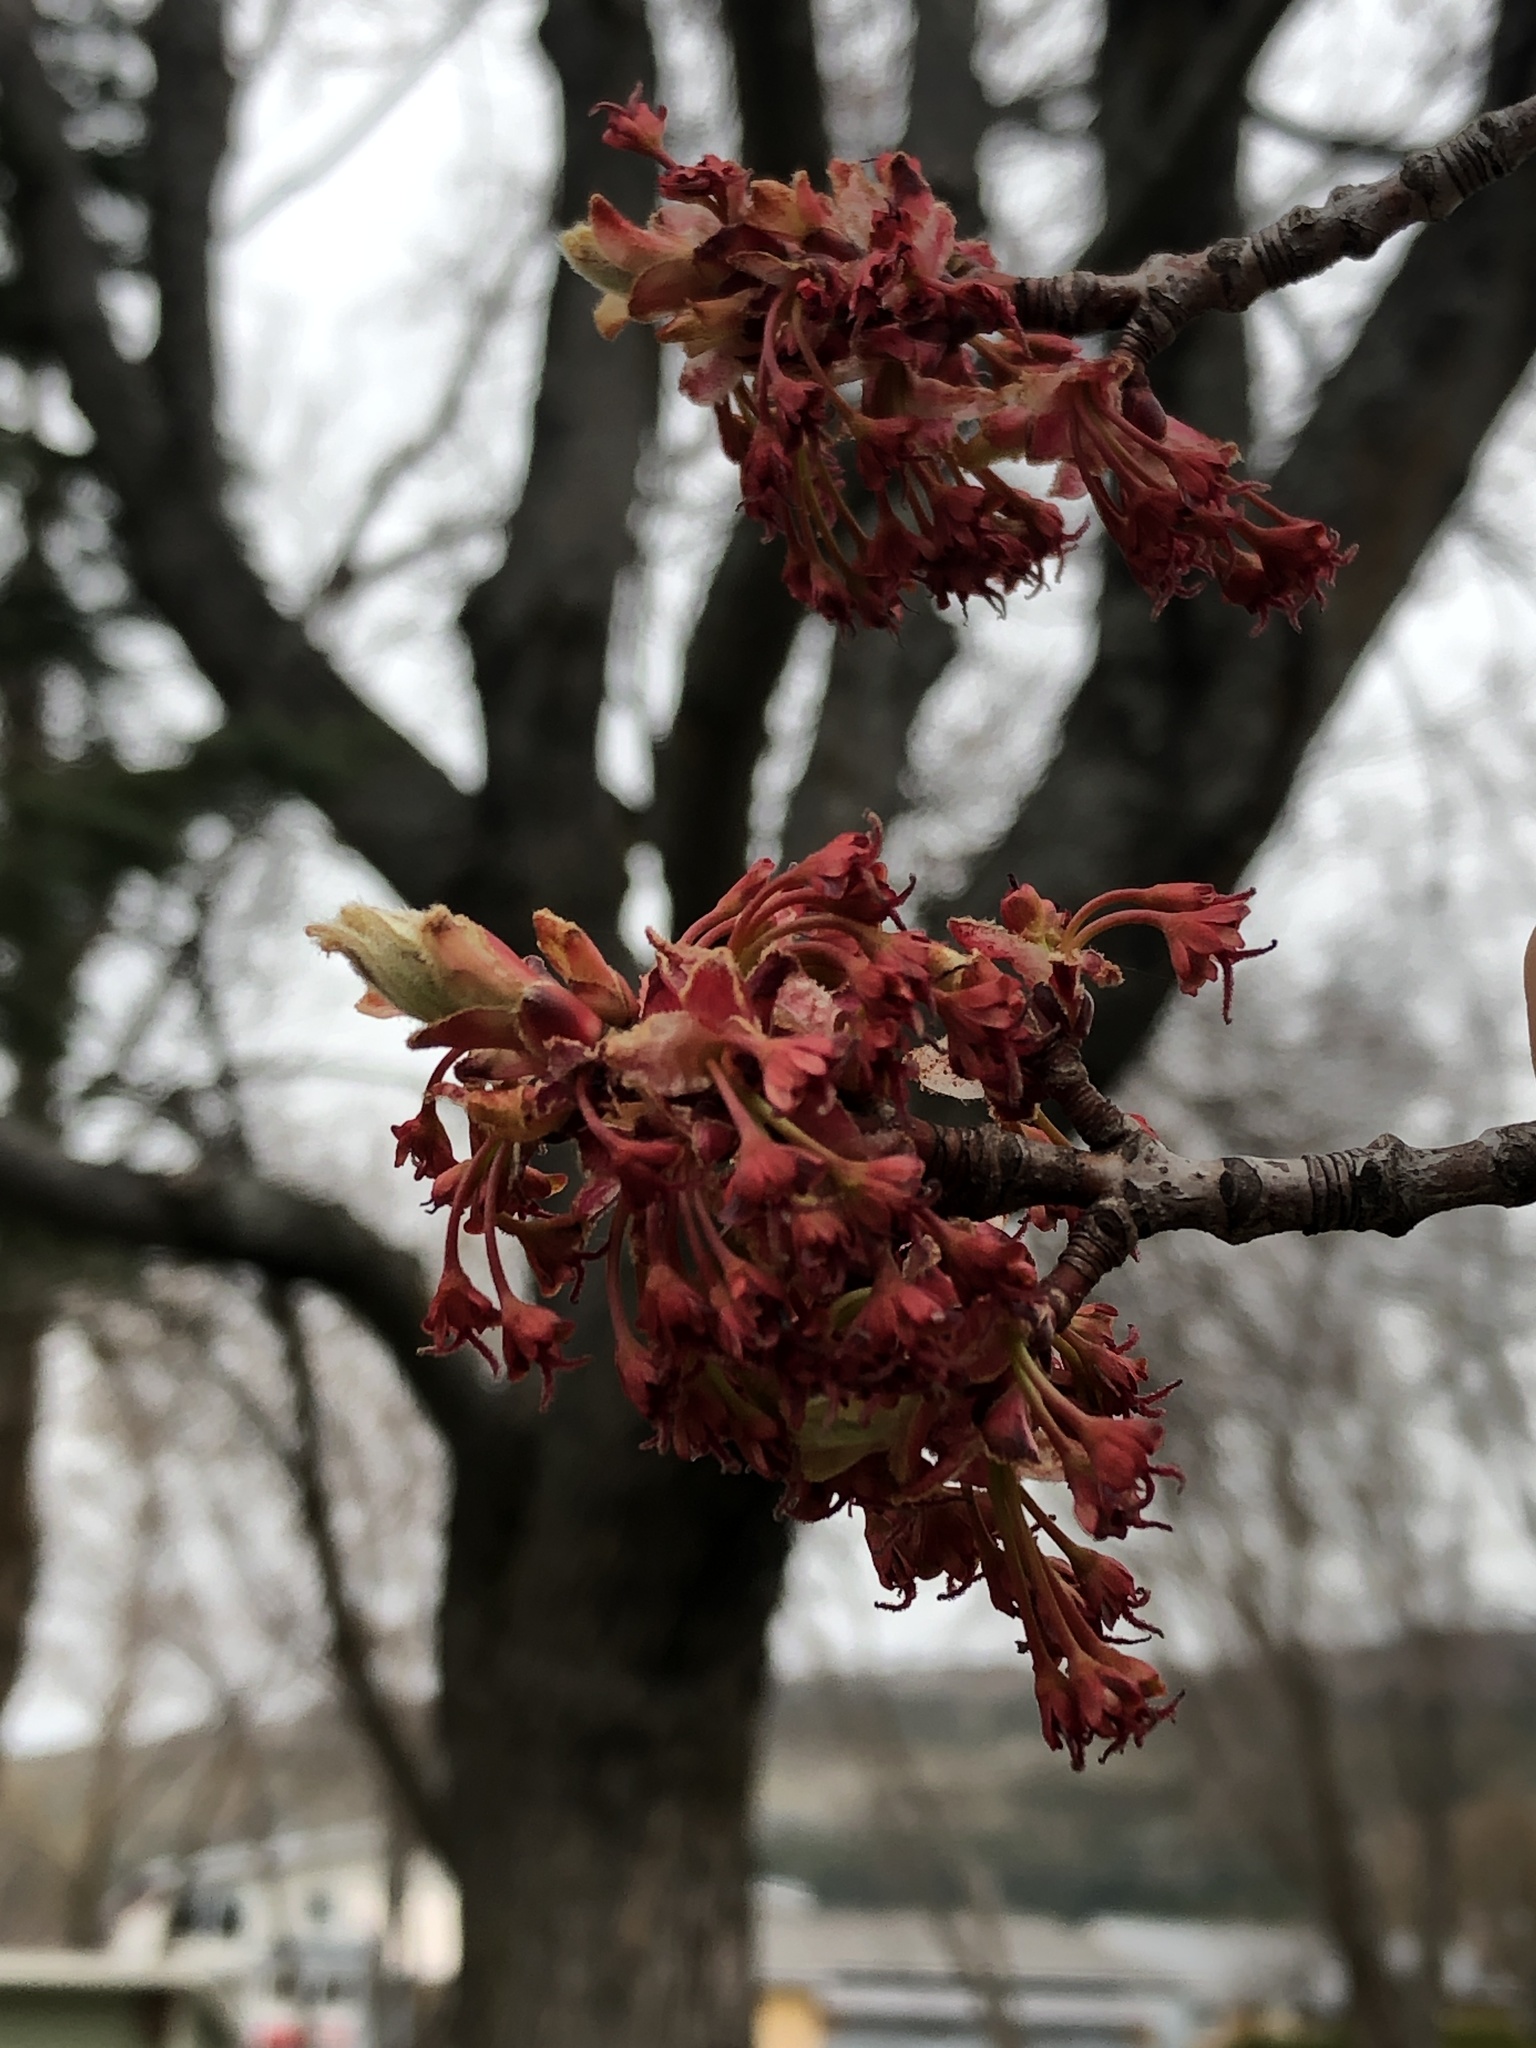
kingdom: Plantae
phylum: Tracheophyta
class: Magnoliopsida
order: Sapindales
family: Sapindaceae
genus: Acer
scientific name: Acer rubrum
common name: Red maple
